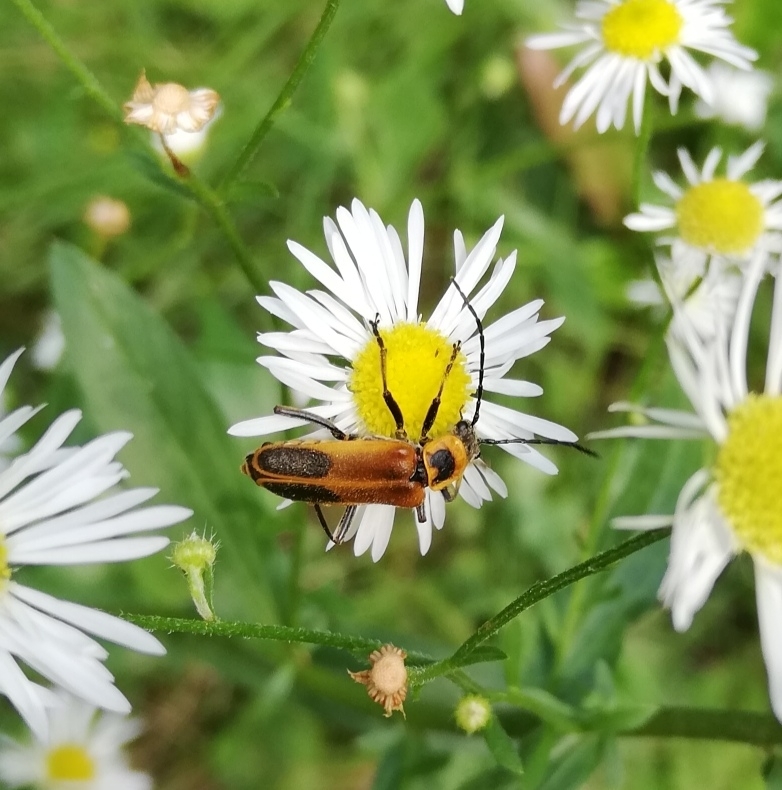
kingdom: Animalia
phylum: Arthropoda
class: Insecta
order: Coleoptera
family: Cantharidae
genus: Chauliognathus
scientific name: Chauliognathus pensylvanicus
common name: Goldenrod soldier beetle
